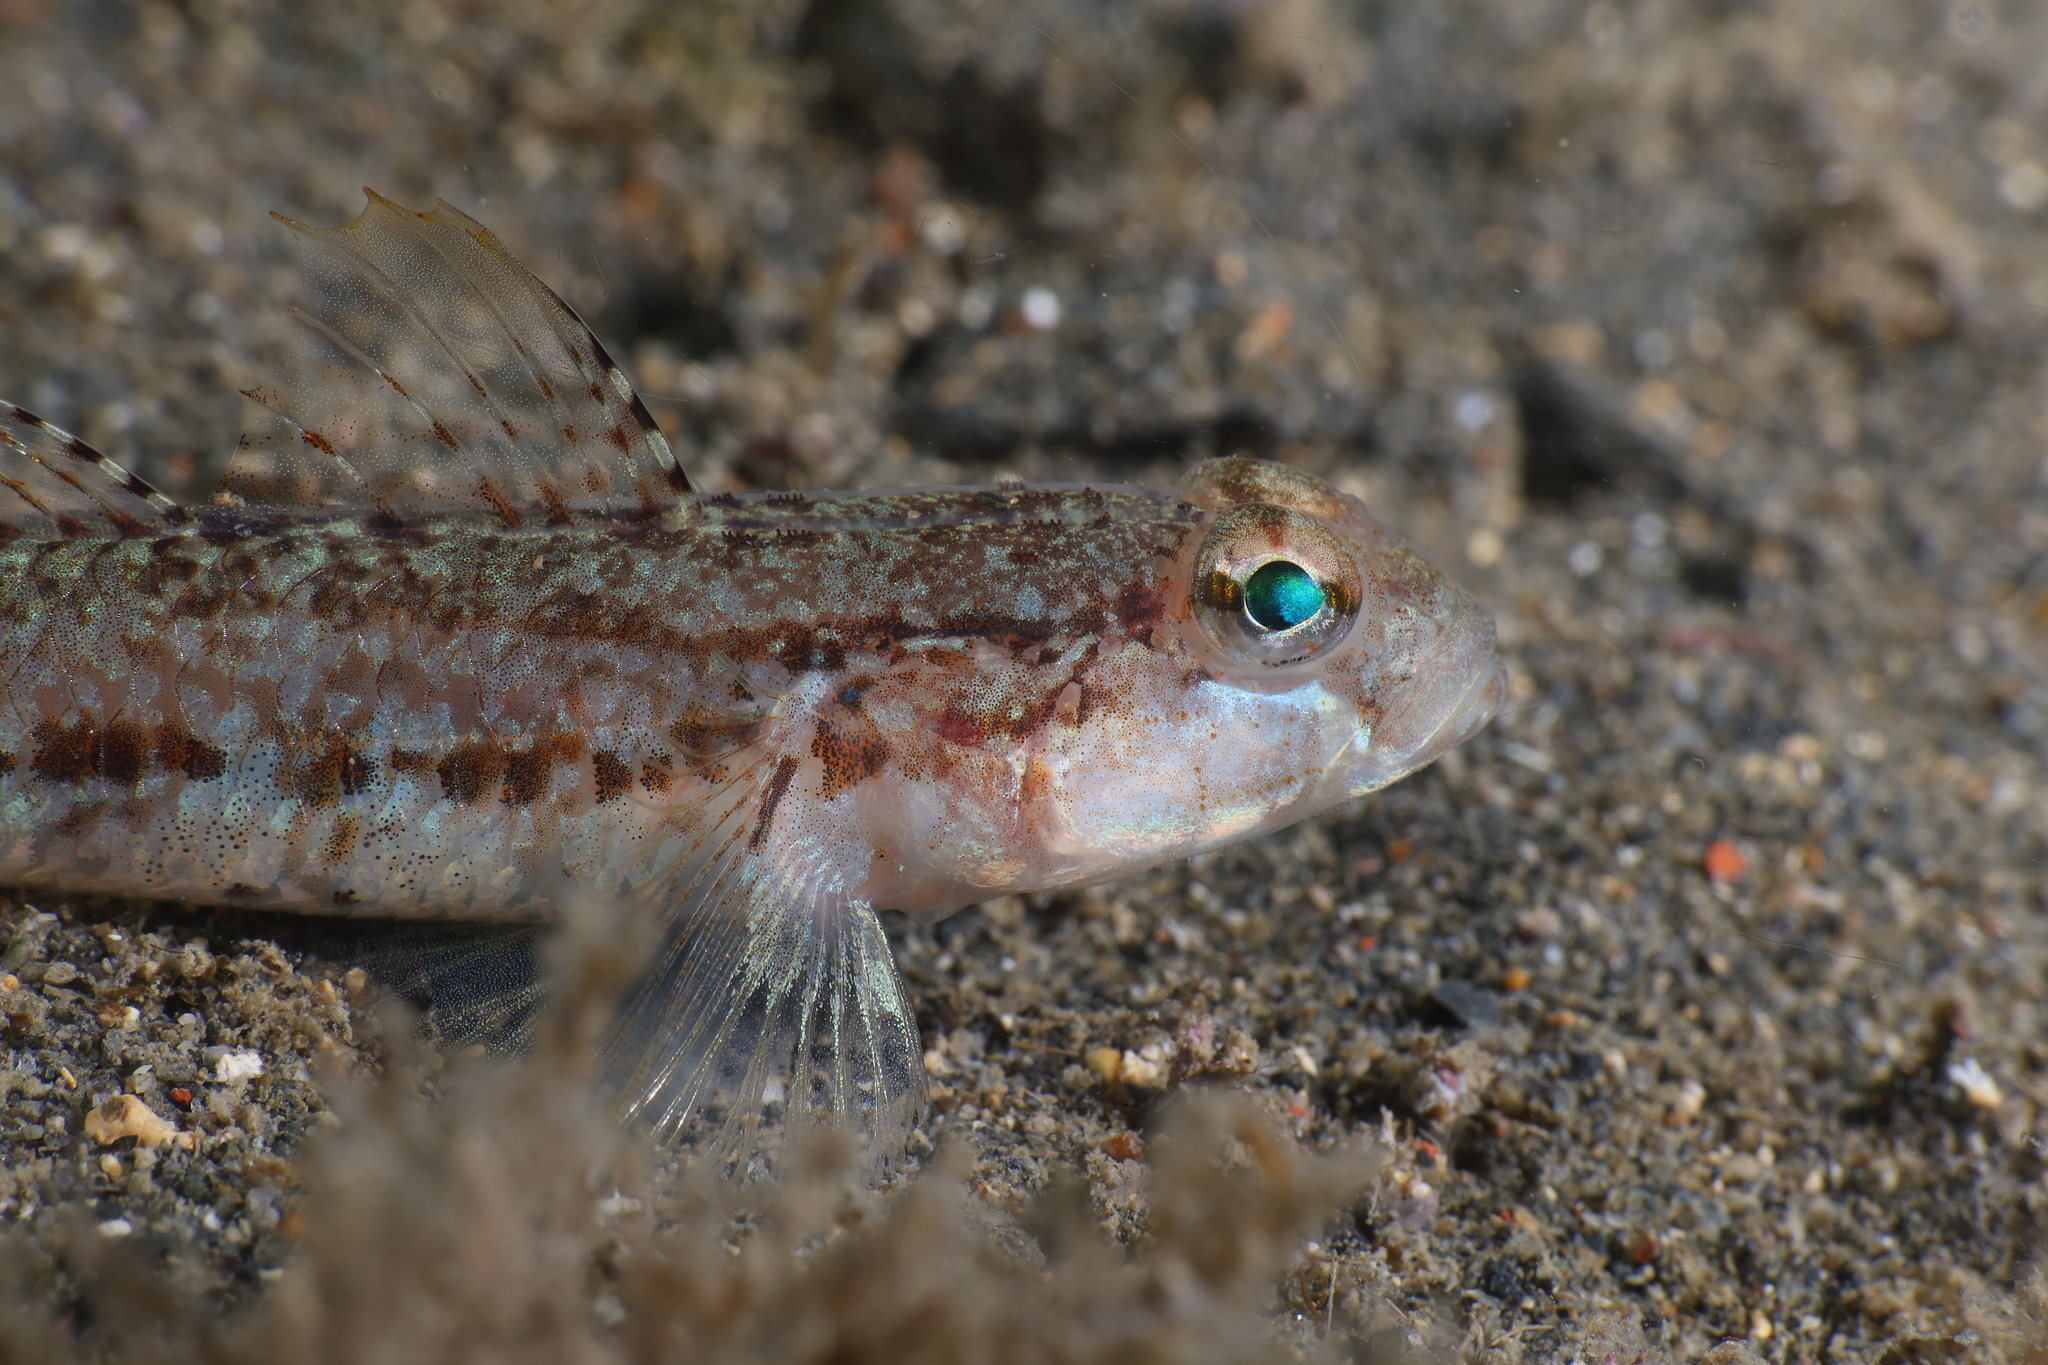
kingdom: Animalia
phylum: Chordata
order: Perciformes
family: Gobiidae
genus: Gobius
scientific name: Gobius roulei
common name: Roule's goby
